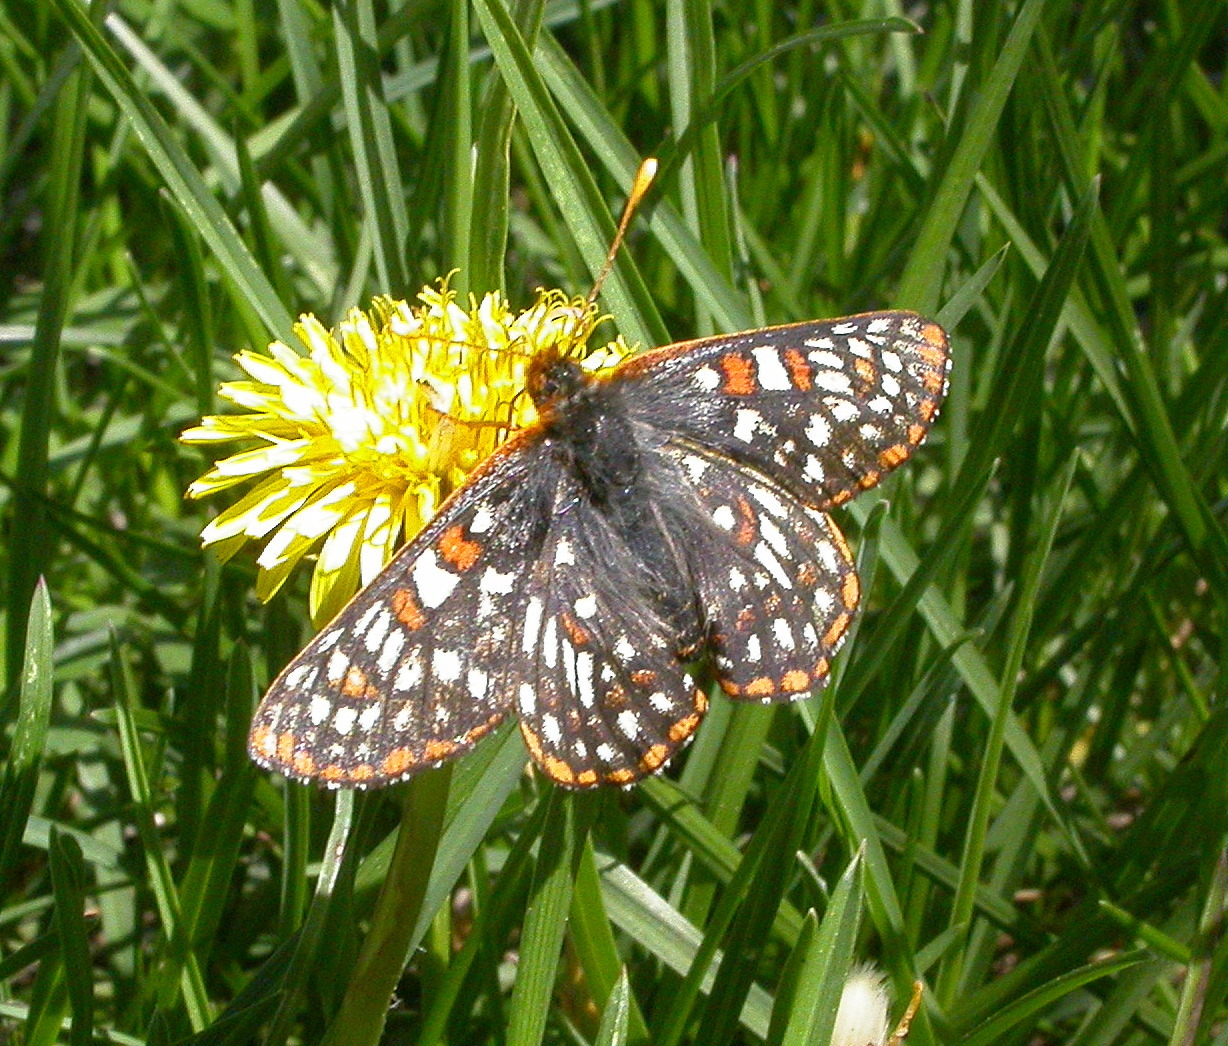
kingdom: Animalia
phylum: Arthropoda
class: Insecta
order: Lepidoptera
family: Nymphalidae
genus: Occidryas
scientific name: Occidryas anicia
